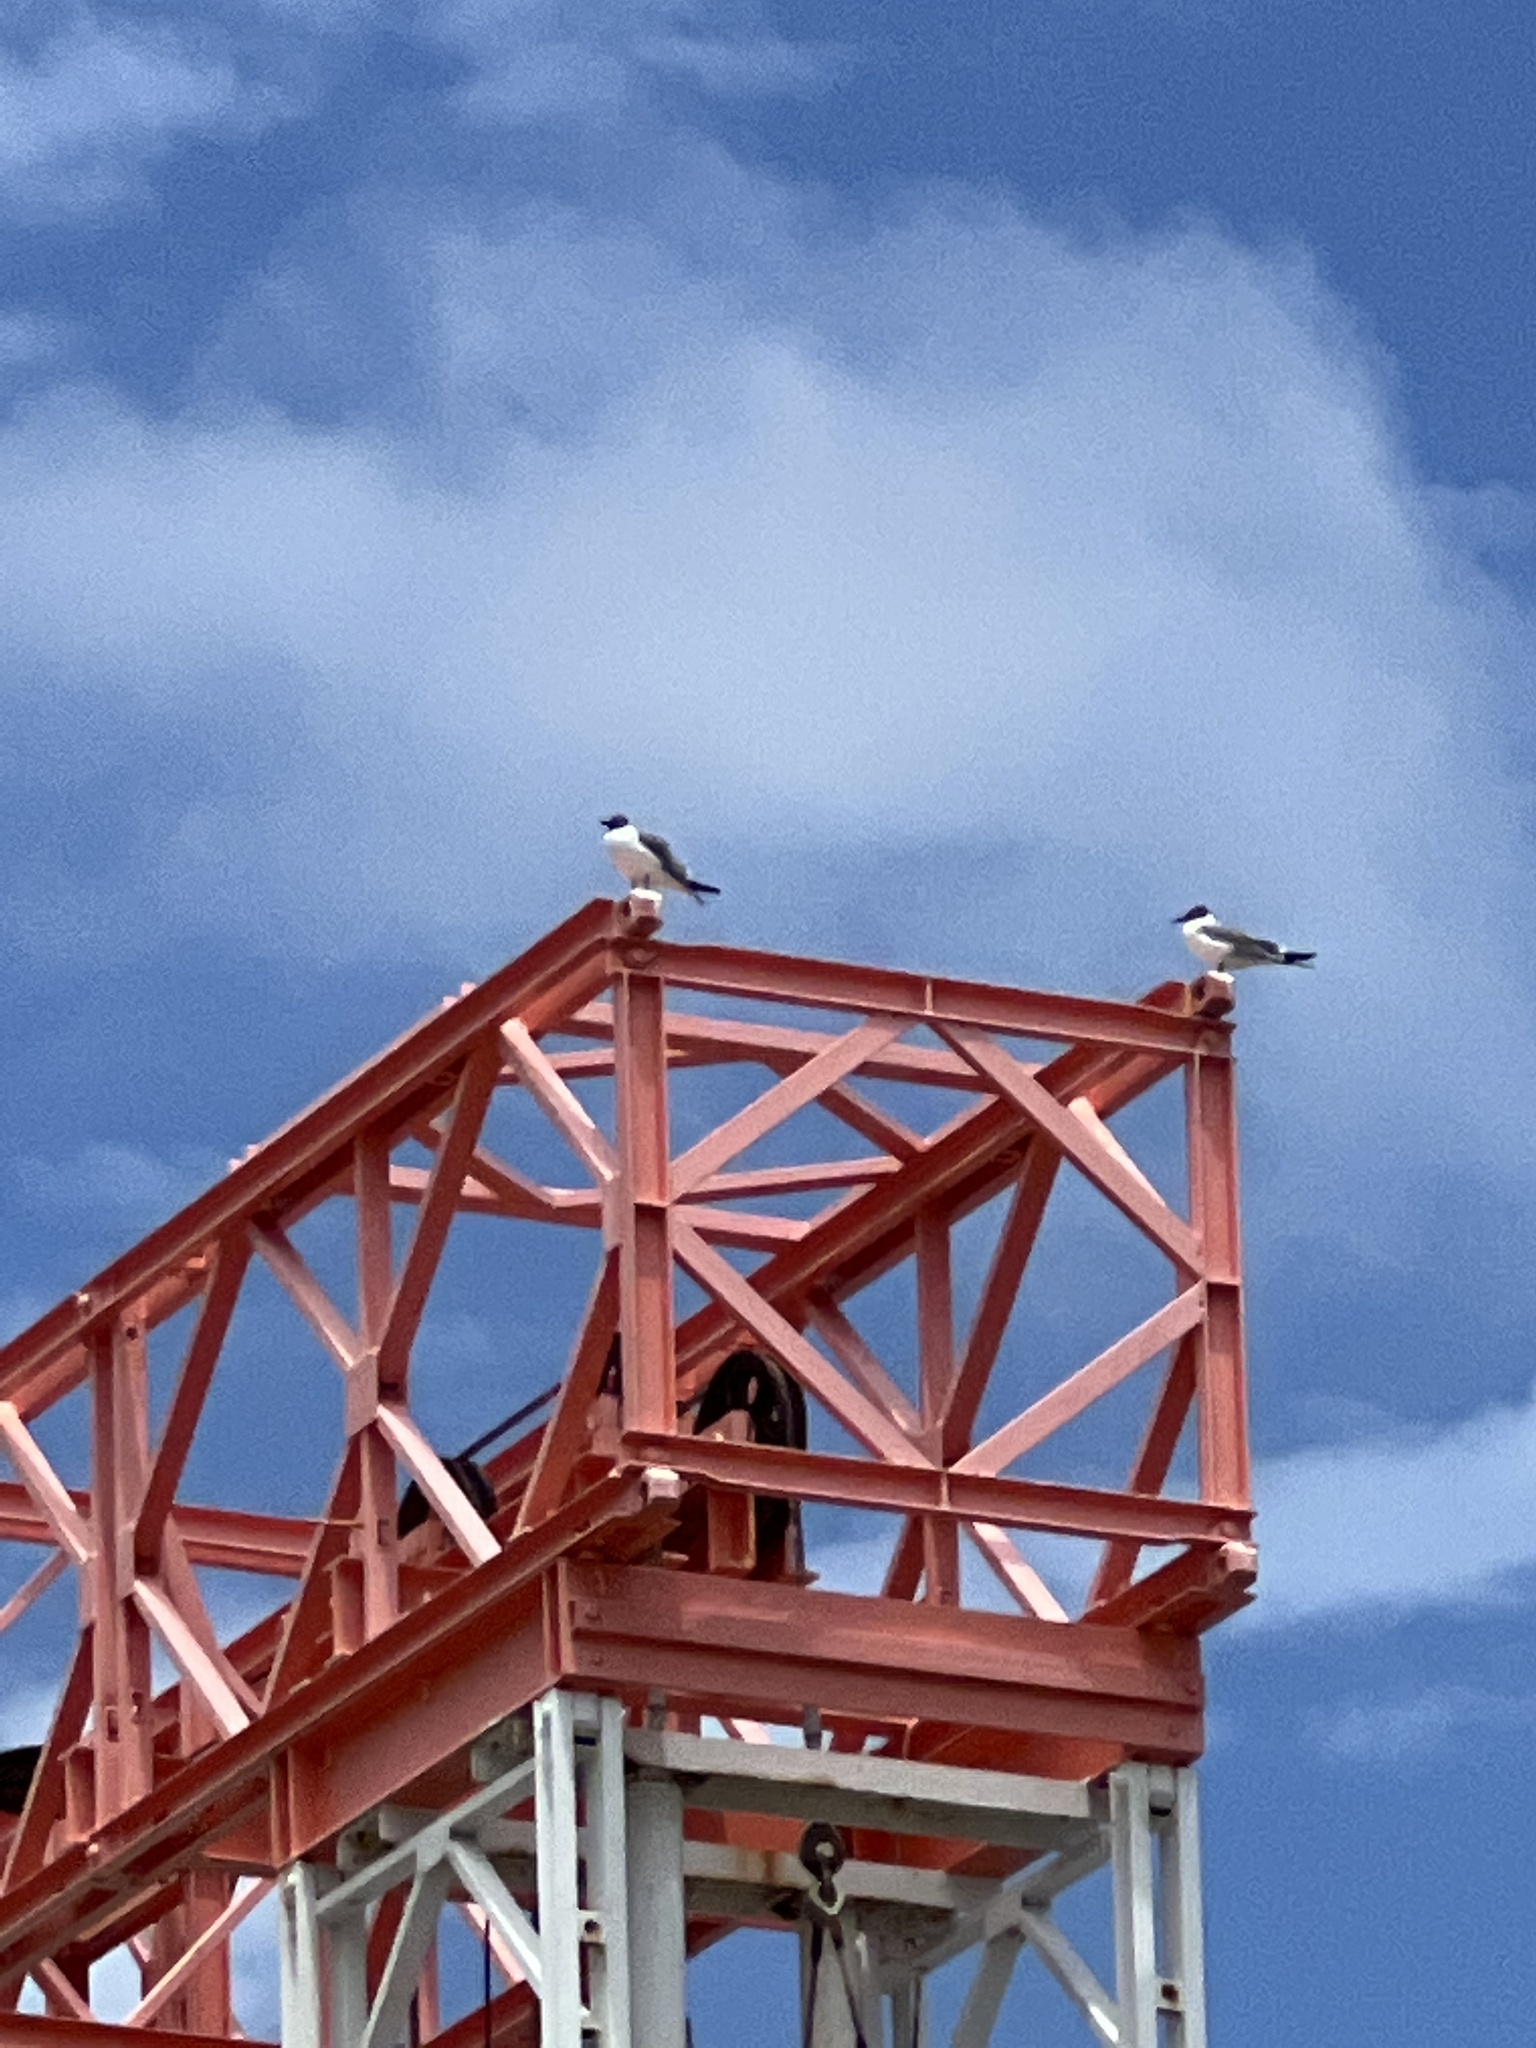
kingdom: Animalia
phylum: Chordata
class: Aves
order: Charadriiformes
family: Laridae
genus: Leucophaeus
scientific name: Leucophaeus atricilla
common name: Laughing gull
